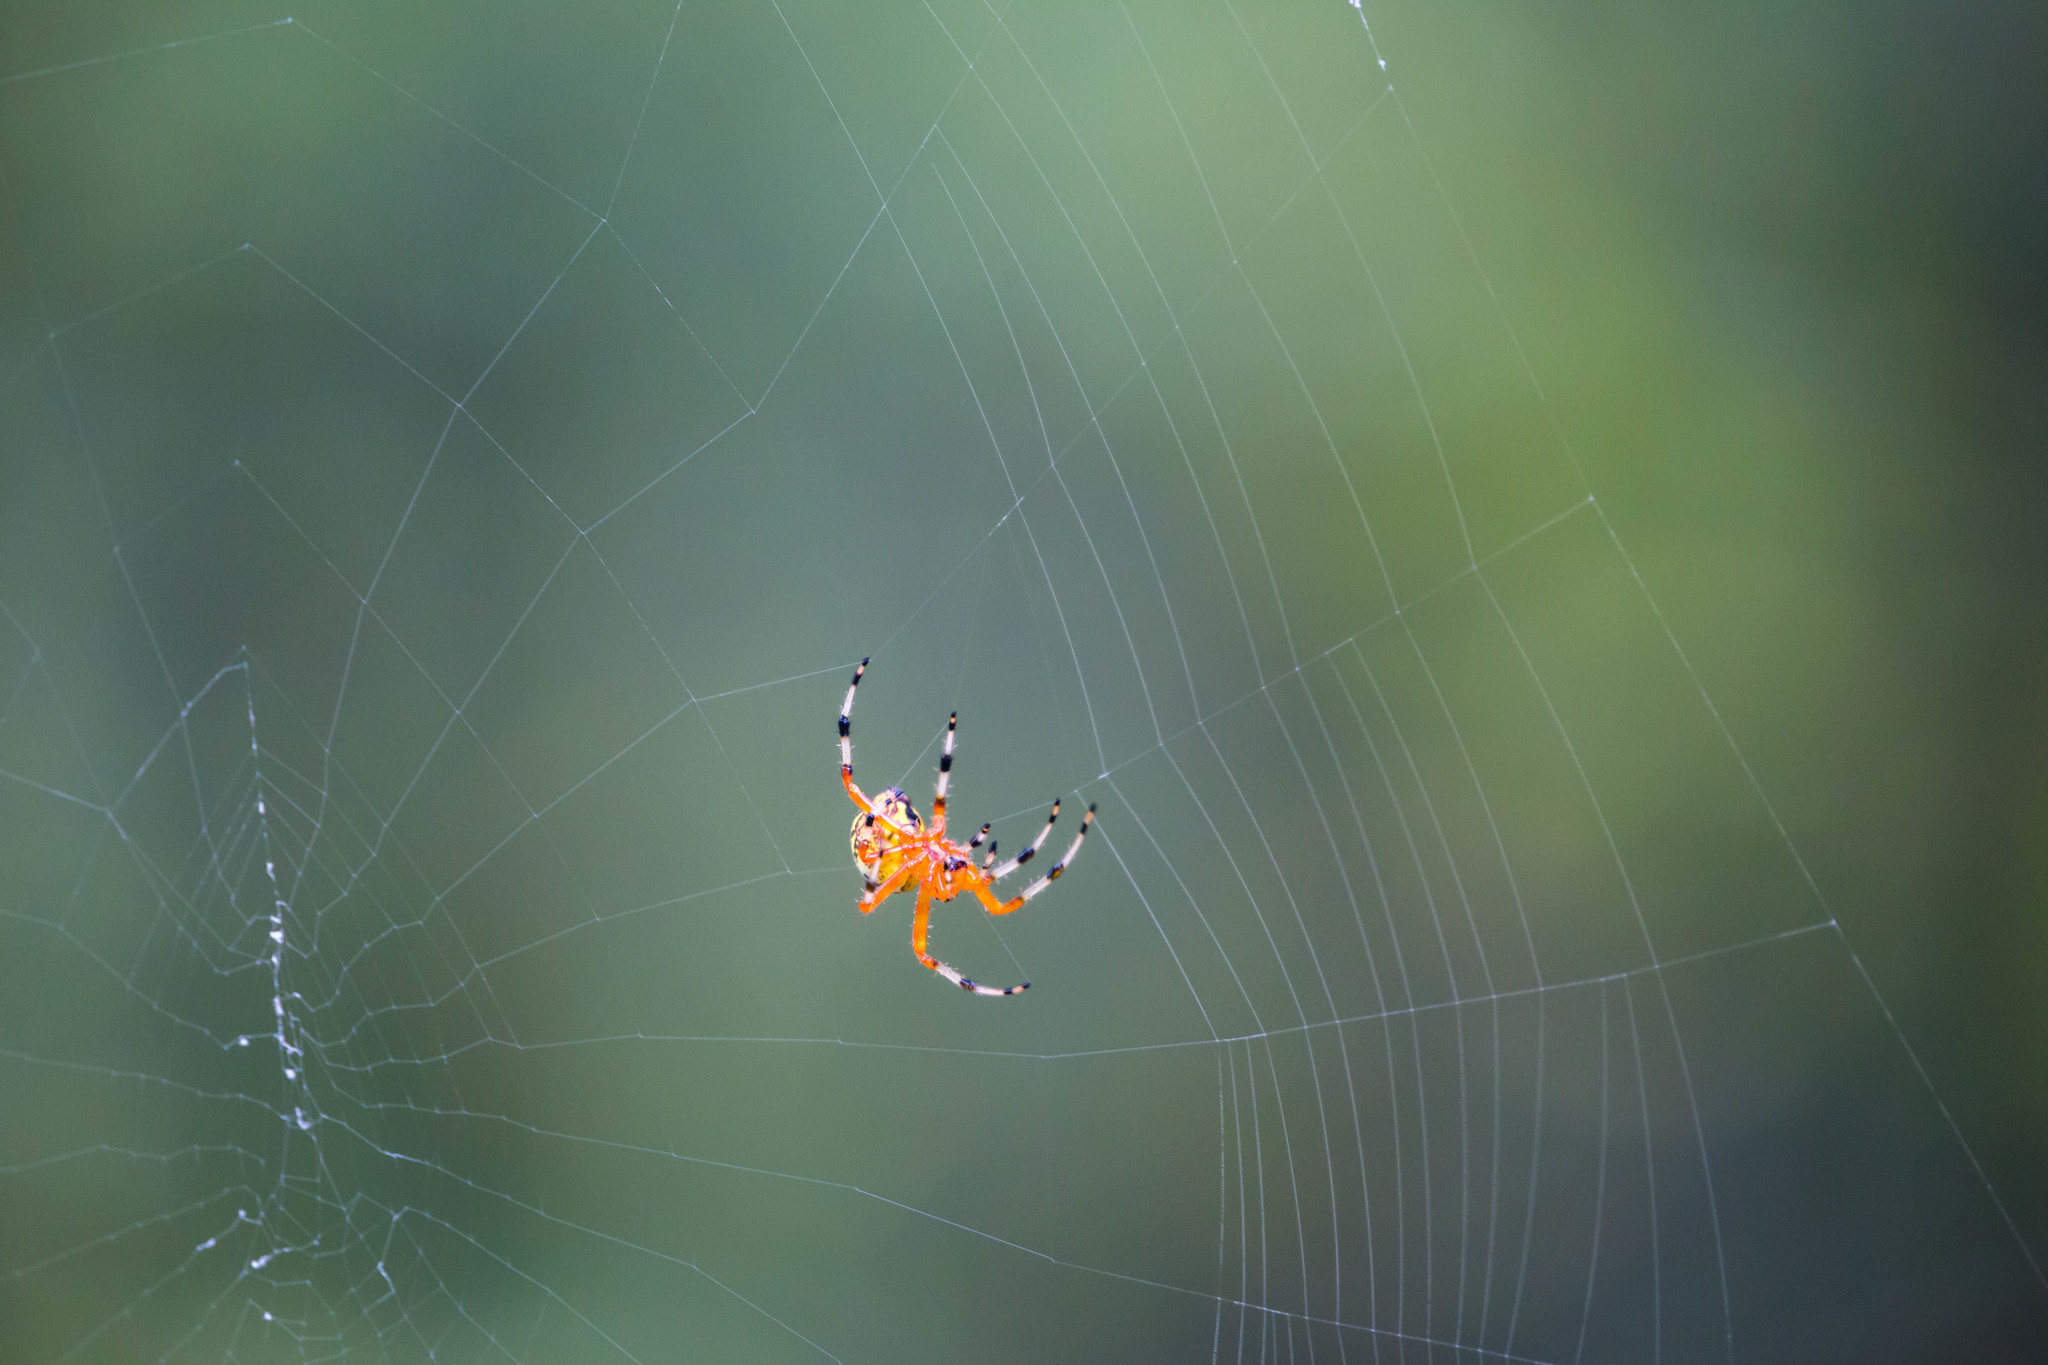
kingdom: Animalia
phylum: Arthropoda
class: Arachnida
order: Araneae
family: Araneidae
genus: Araneus
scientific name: Araneus marmoreus
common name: Marbled orbweaver
